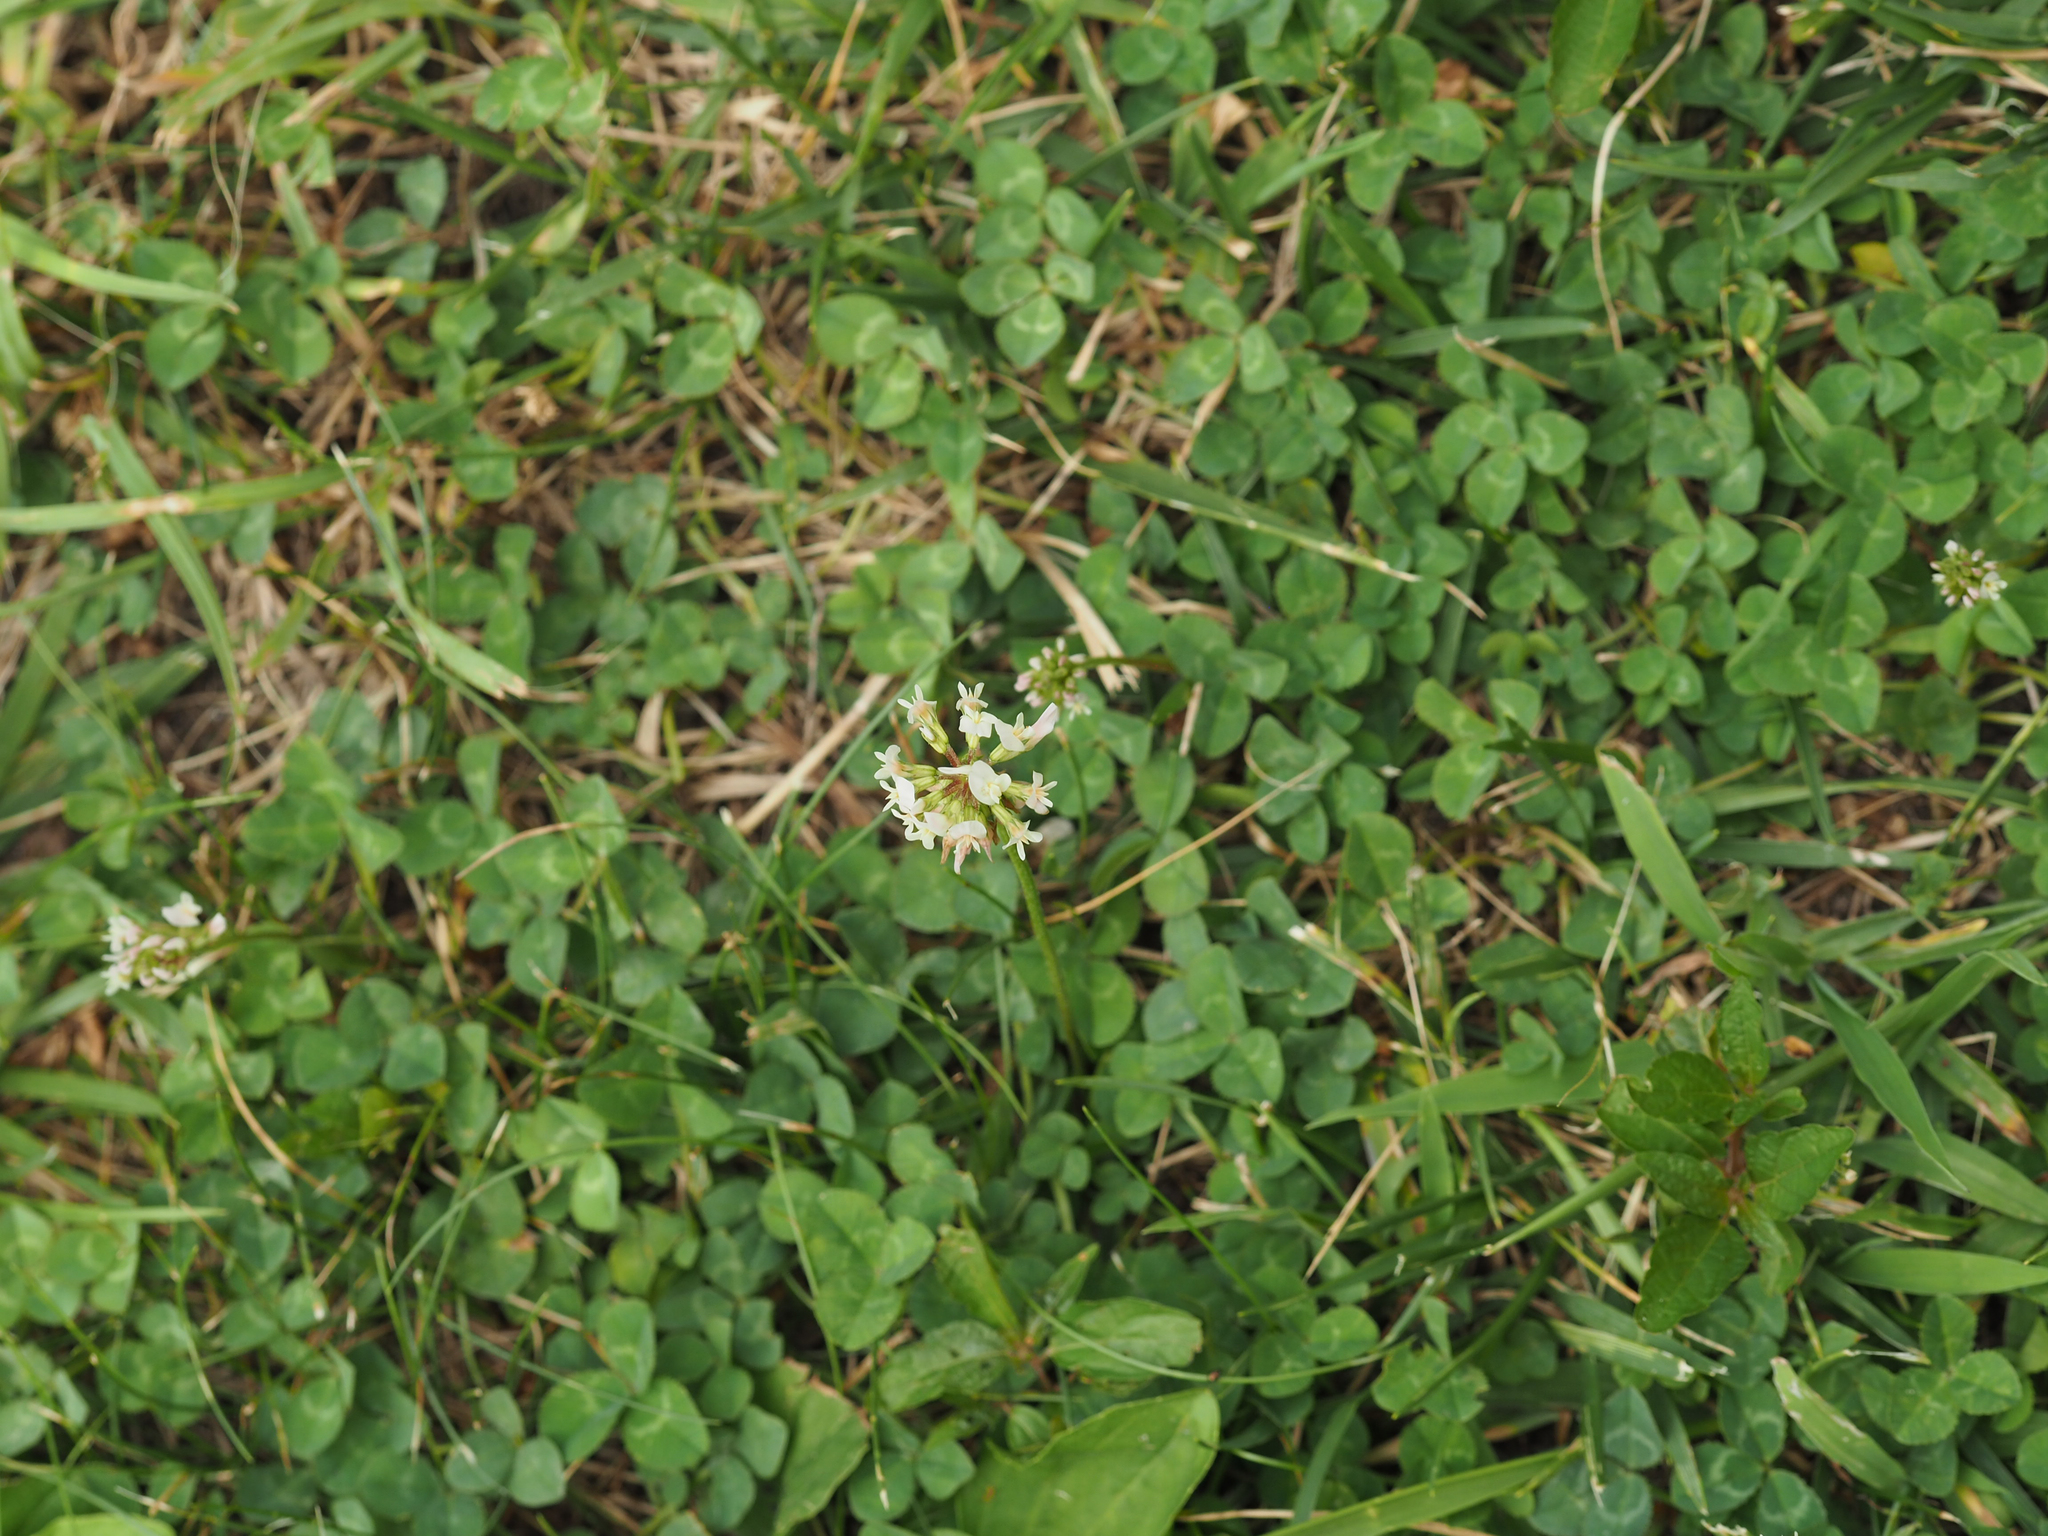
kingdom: Plantae
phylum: Tracheophyta
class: Magnoliopsida
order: Fabales
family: Fabaceae
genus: Trifolium
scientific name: Trifolium repens
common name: White clover
